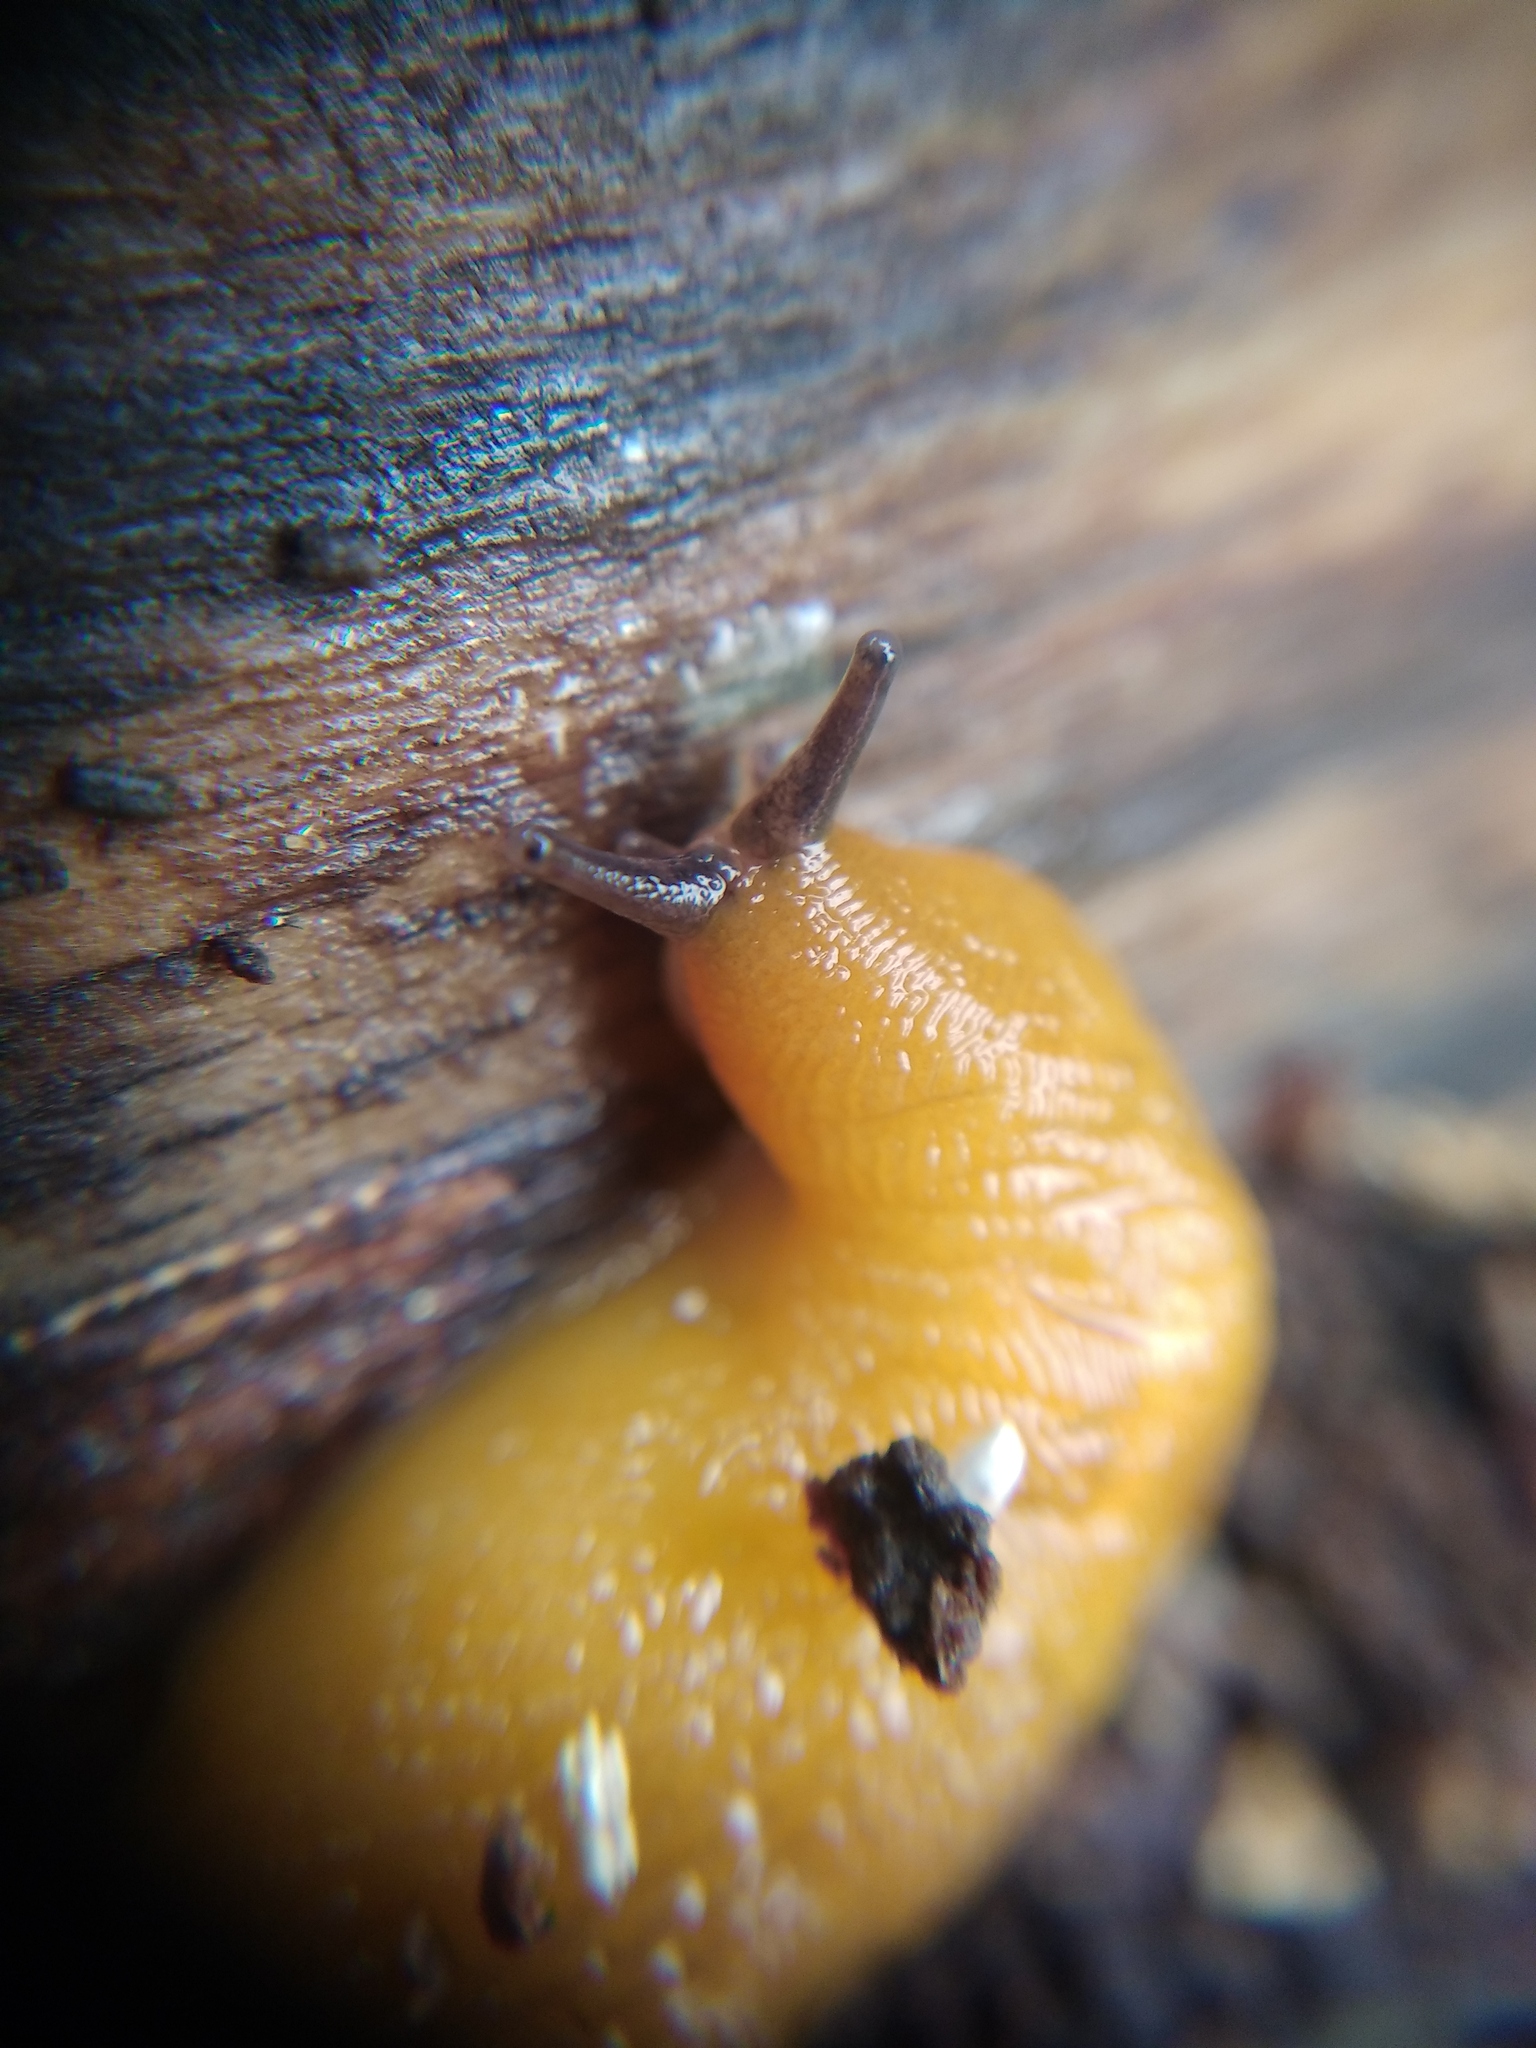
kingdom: Animalia
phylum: Mollusca
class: Gastropoda
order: Stylommatophora
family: Limacidae
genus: Malacolimax
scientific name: Malacolimax tenellus
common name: Lemon slug
